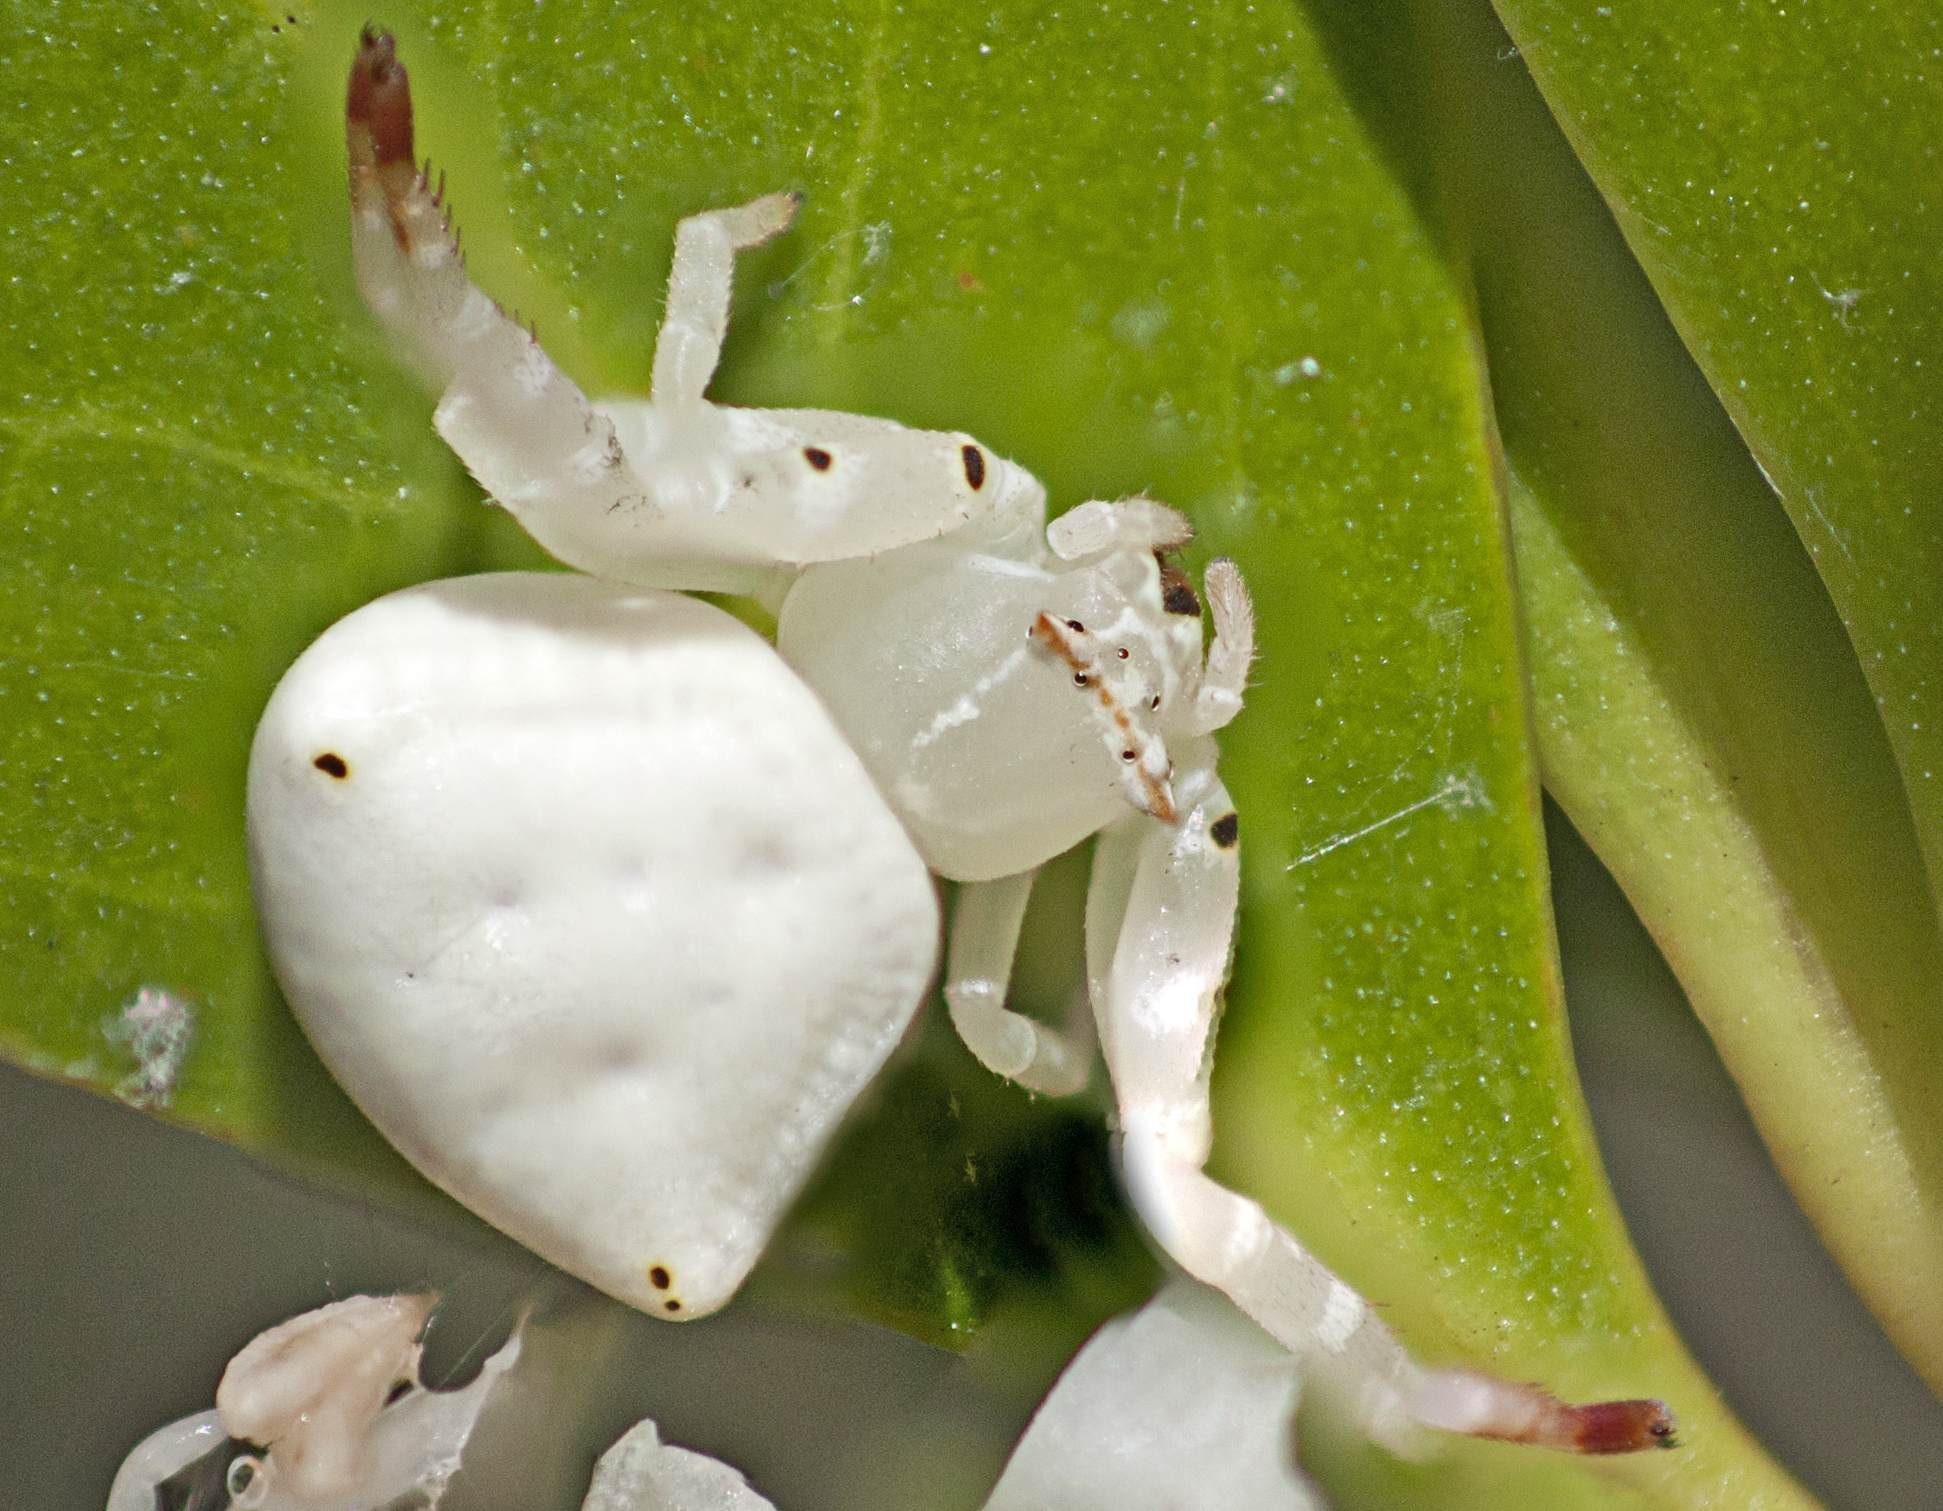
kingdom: Animalia
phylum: Arthropoda
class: Arachnida
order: Araneae
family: Thomisidae
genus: Thomisus
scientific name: Thomisus spectabilis
